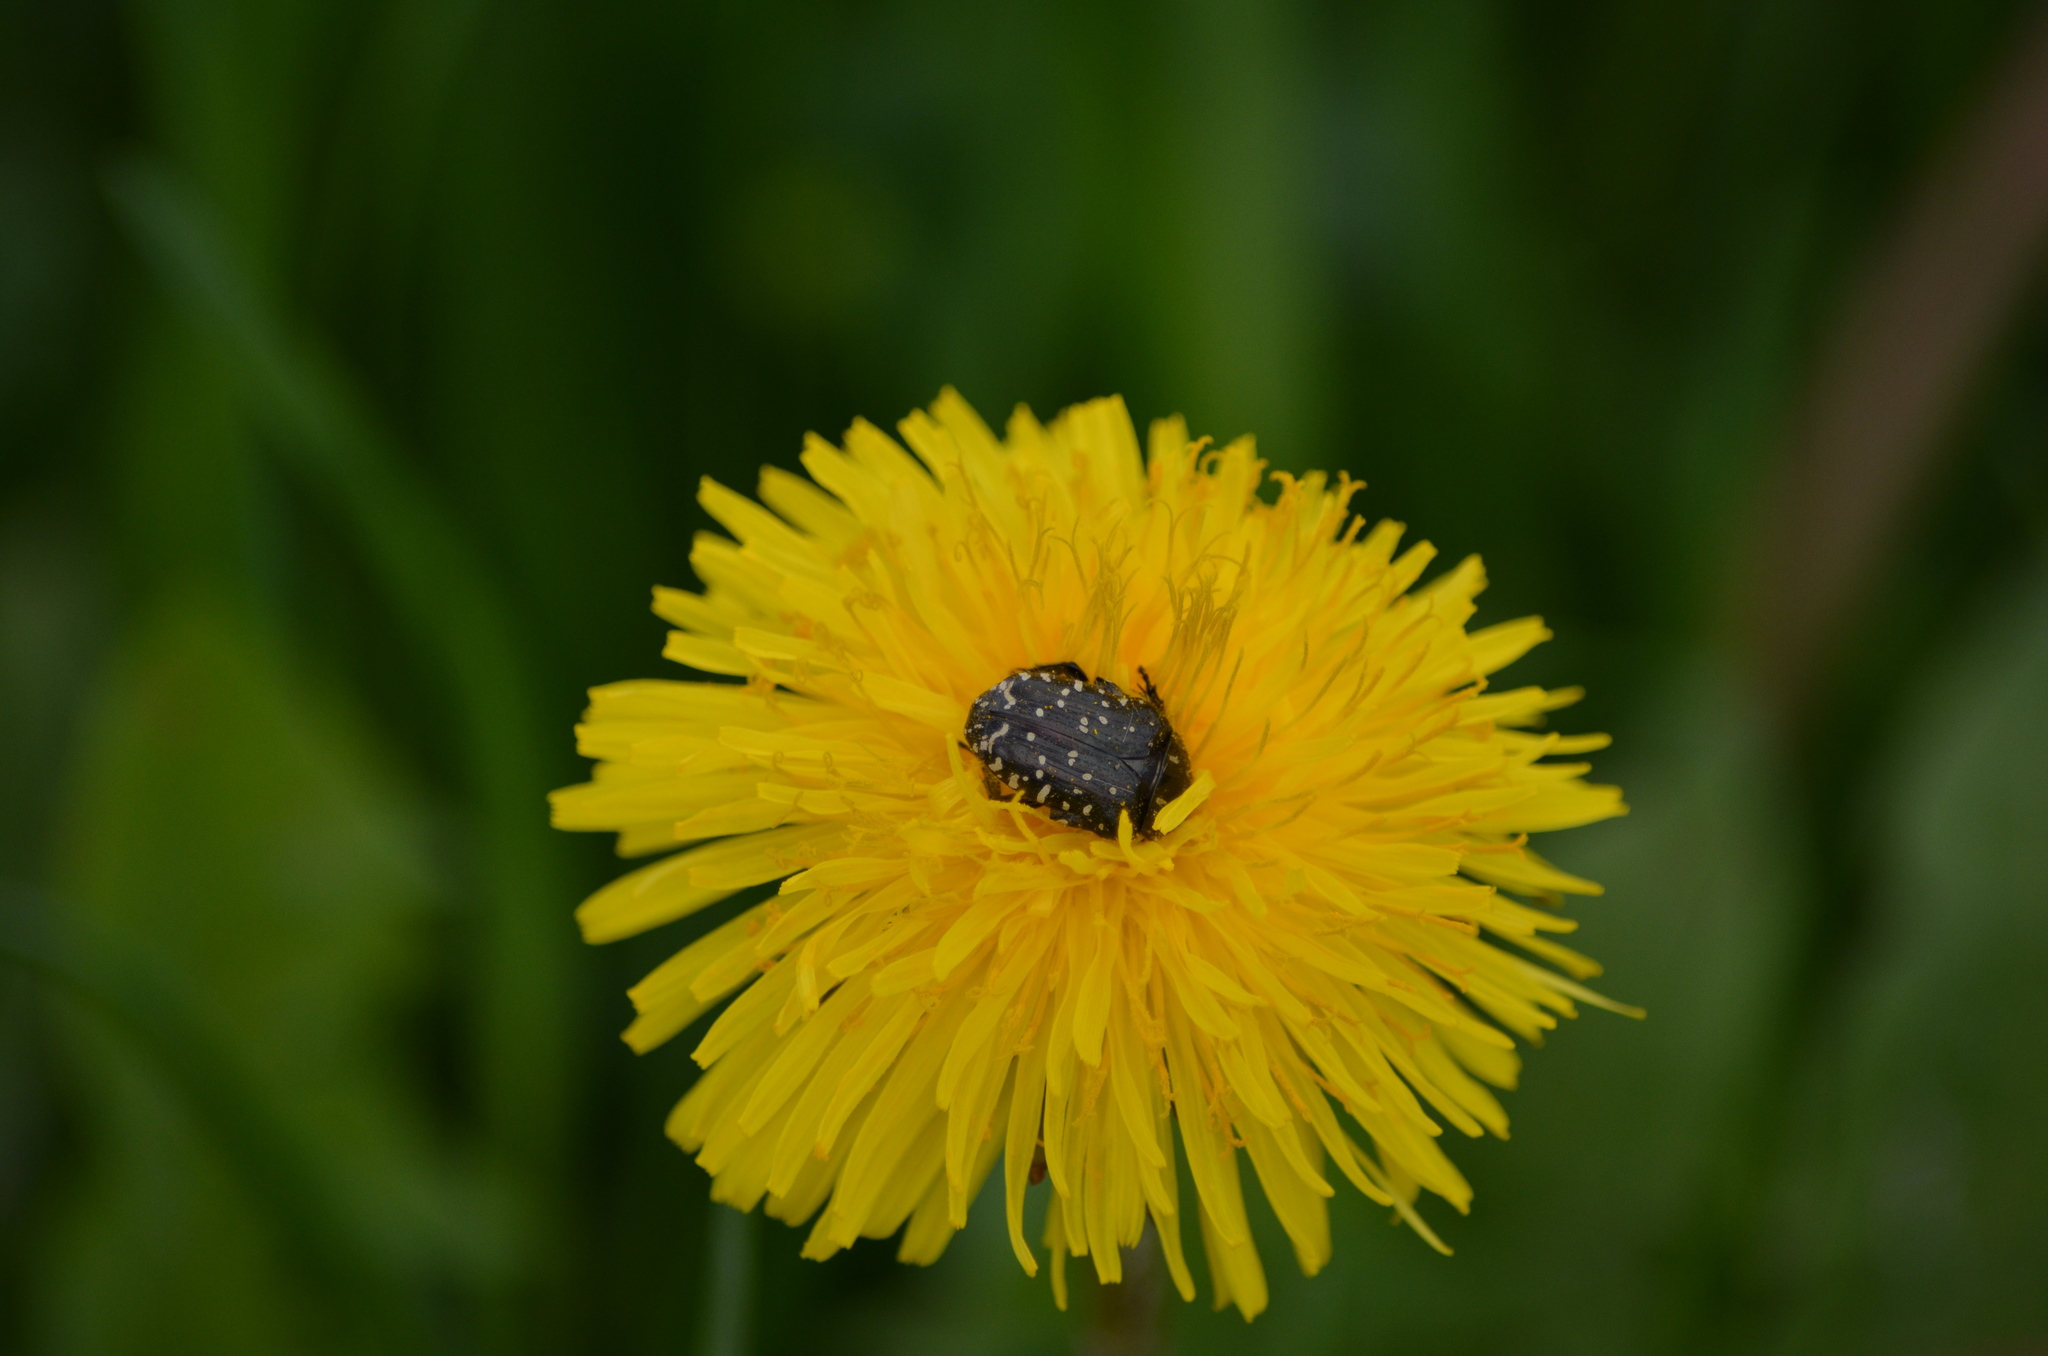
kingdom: Animalia
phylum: Arthropoda
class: Insecta
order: Coleoptera
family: Scarabaeidae
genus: Oxythyrea
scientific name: Oxythyrea funesta
